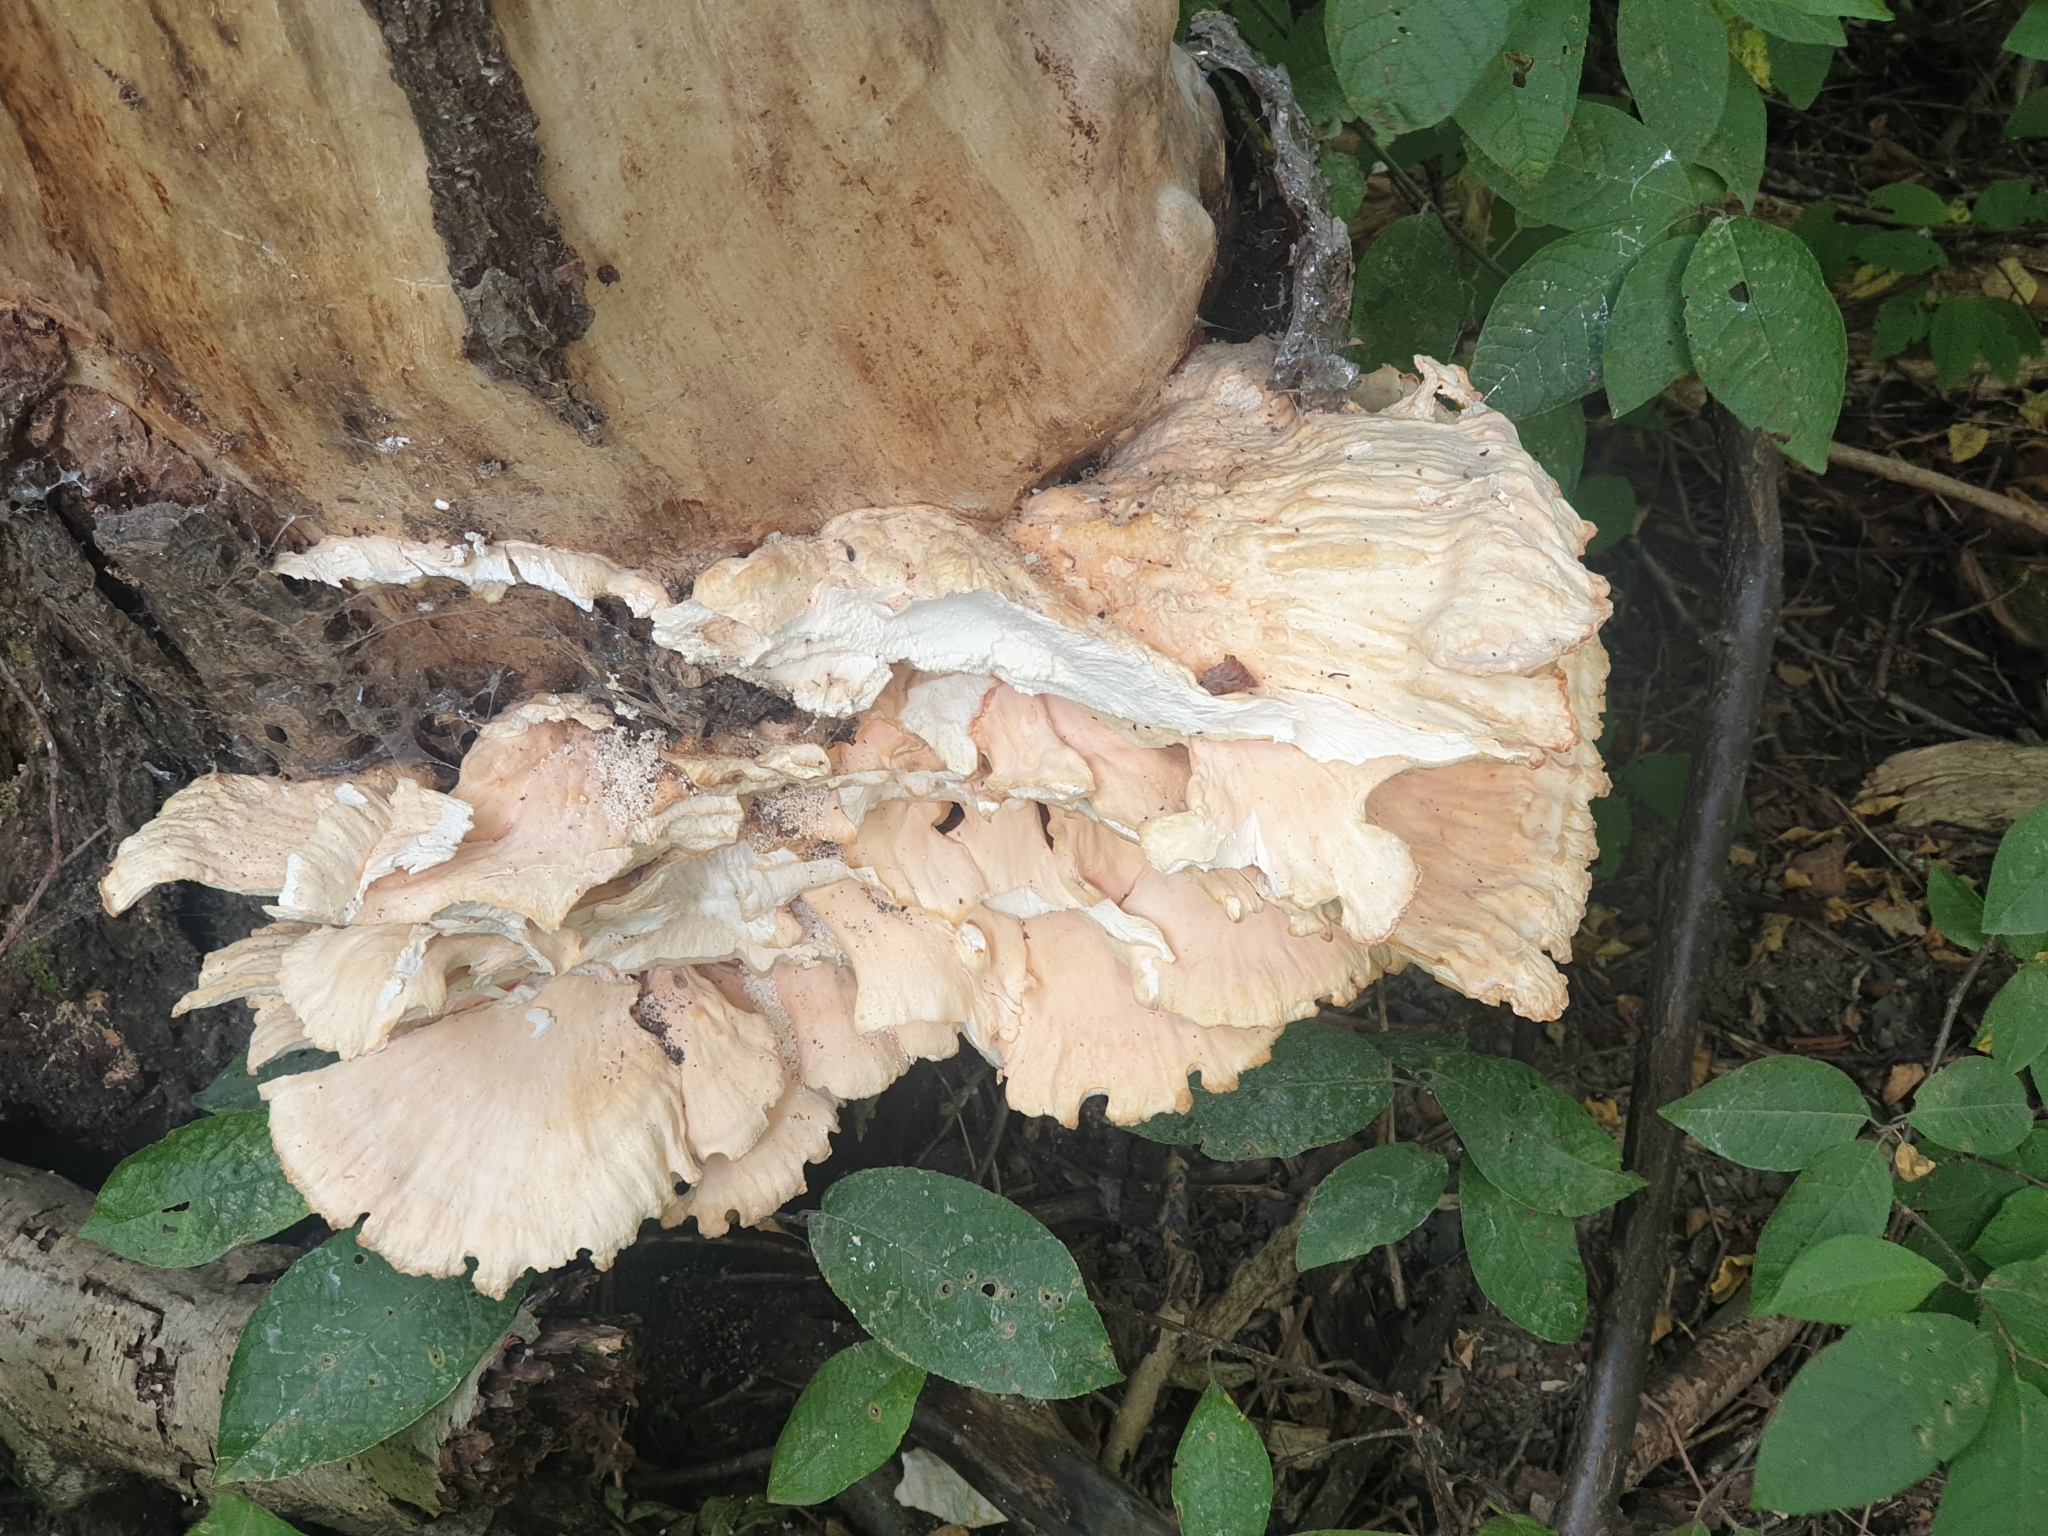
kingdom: Fungi
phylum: Basidiomycota
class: Agaricomycetes
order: Polyporales
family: Laetiporaceae
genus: Laetiporus
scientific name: Laetiporus sulphureus
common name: Chicken of the woods
